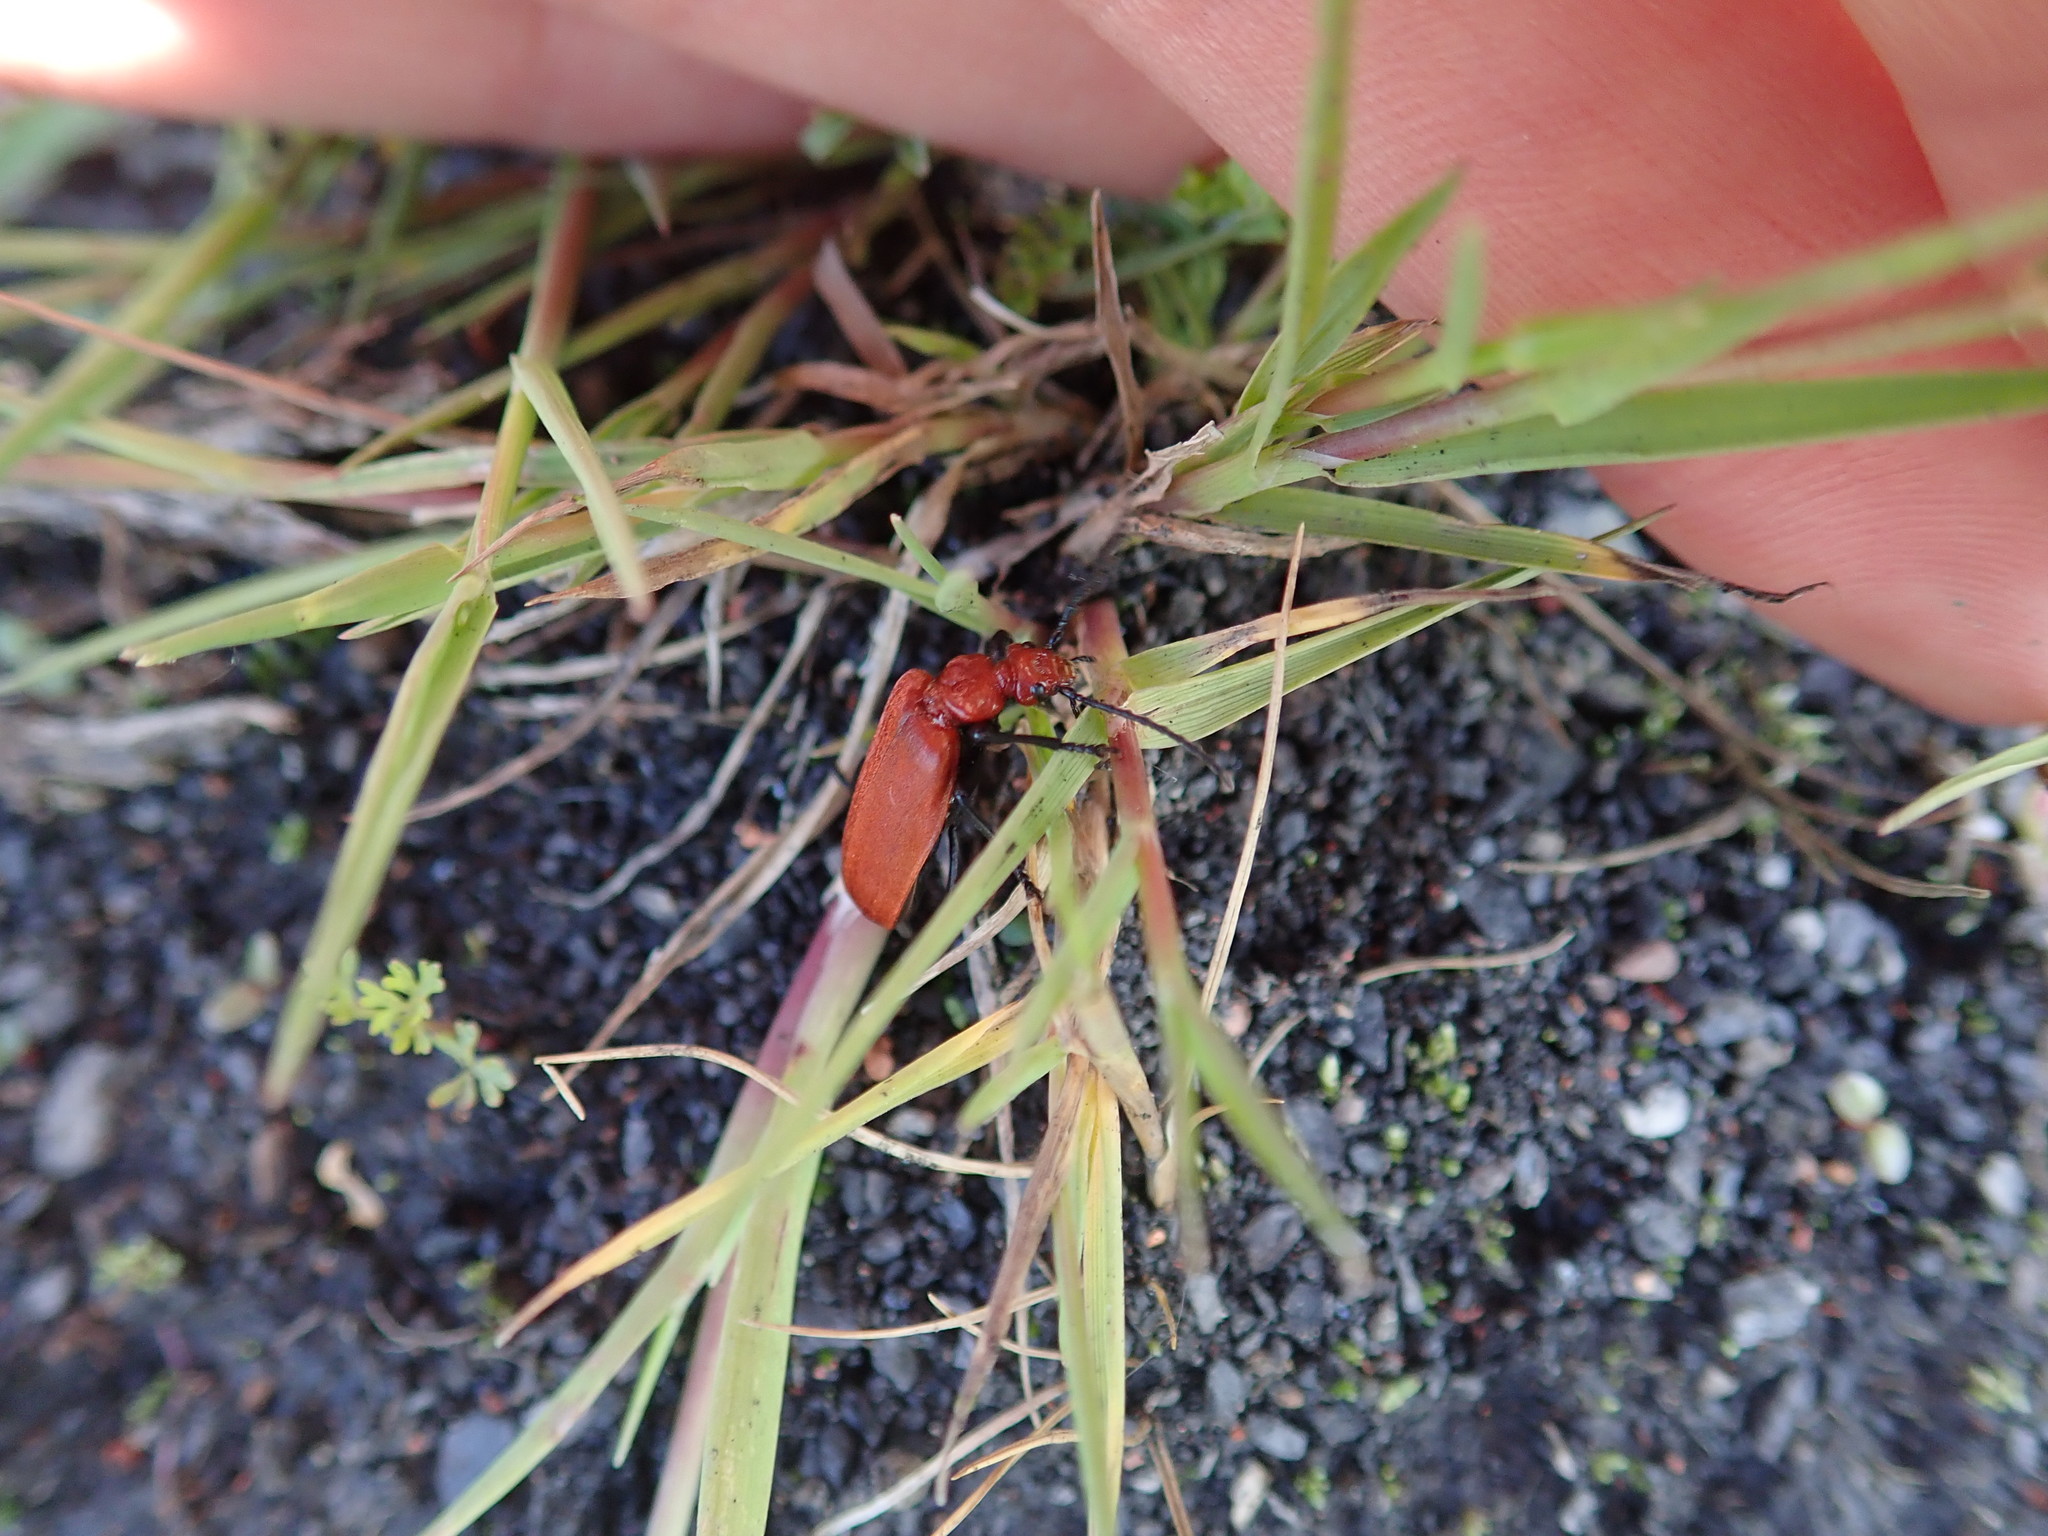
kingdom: Animalia
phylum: Arthropoda
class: Insecta
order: Coleoptera
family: Pyrochroidae
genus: Pyrochroa
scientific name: Pyrochroa serraticornis
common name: Red-headed cardinal beetle
